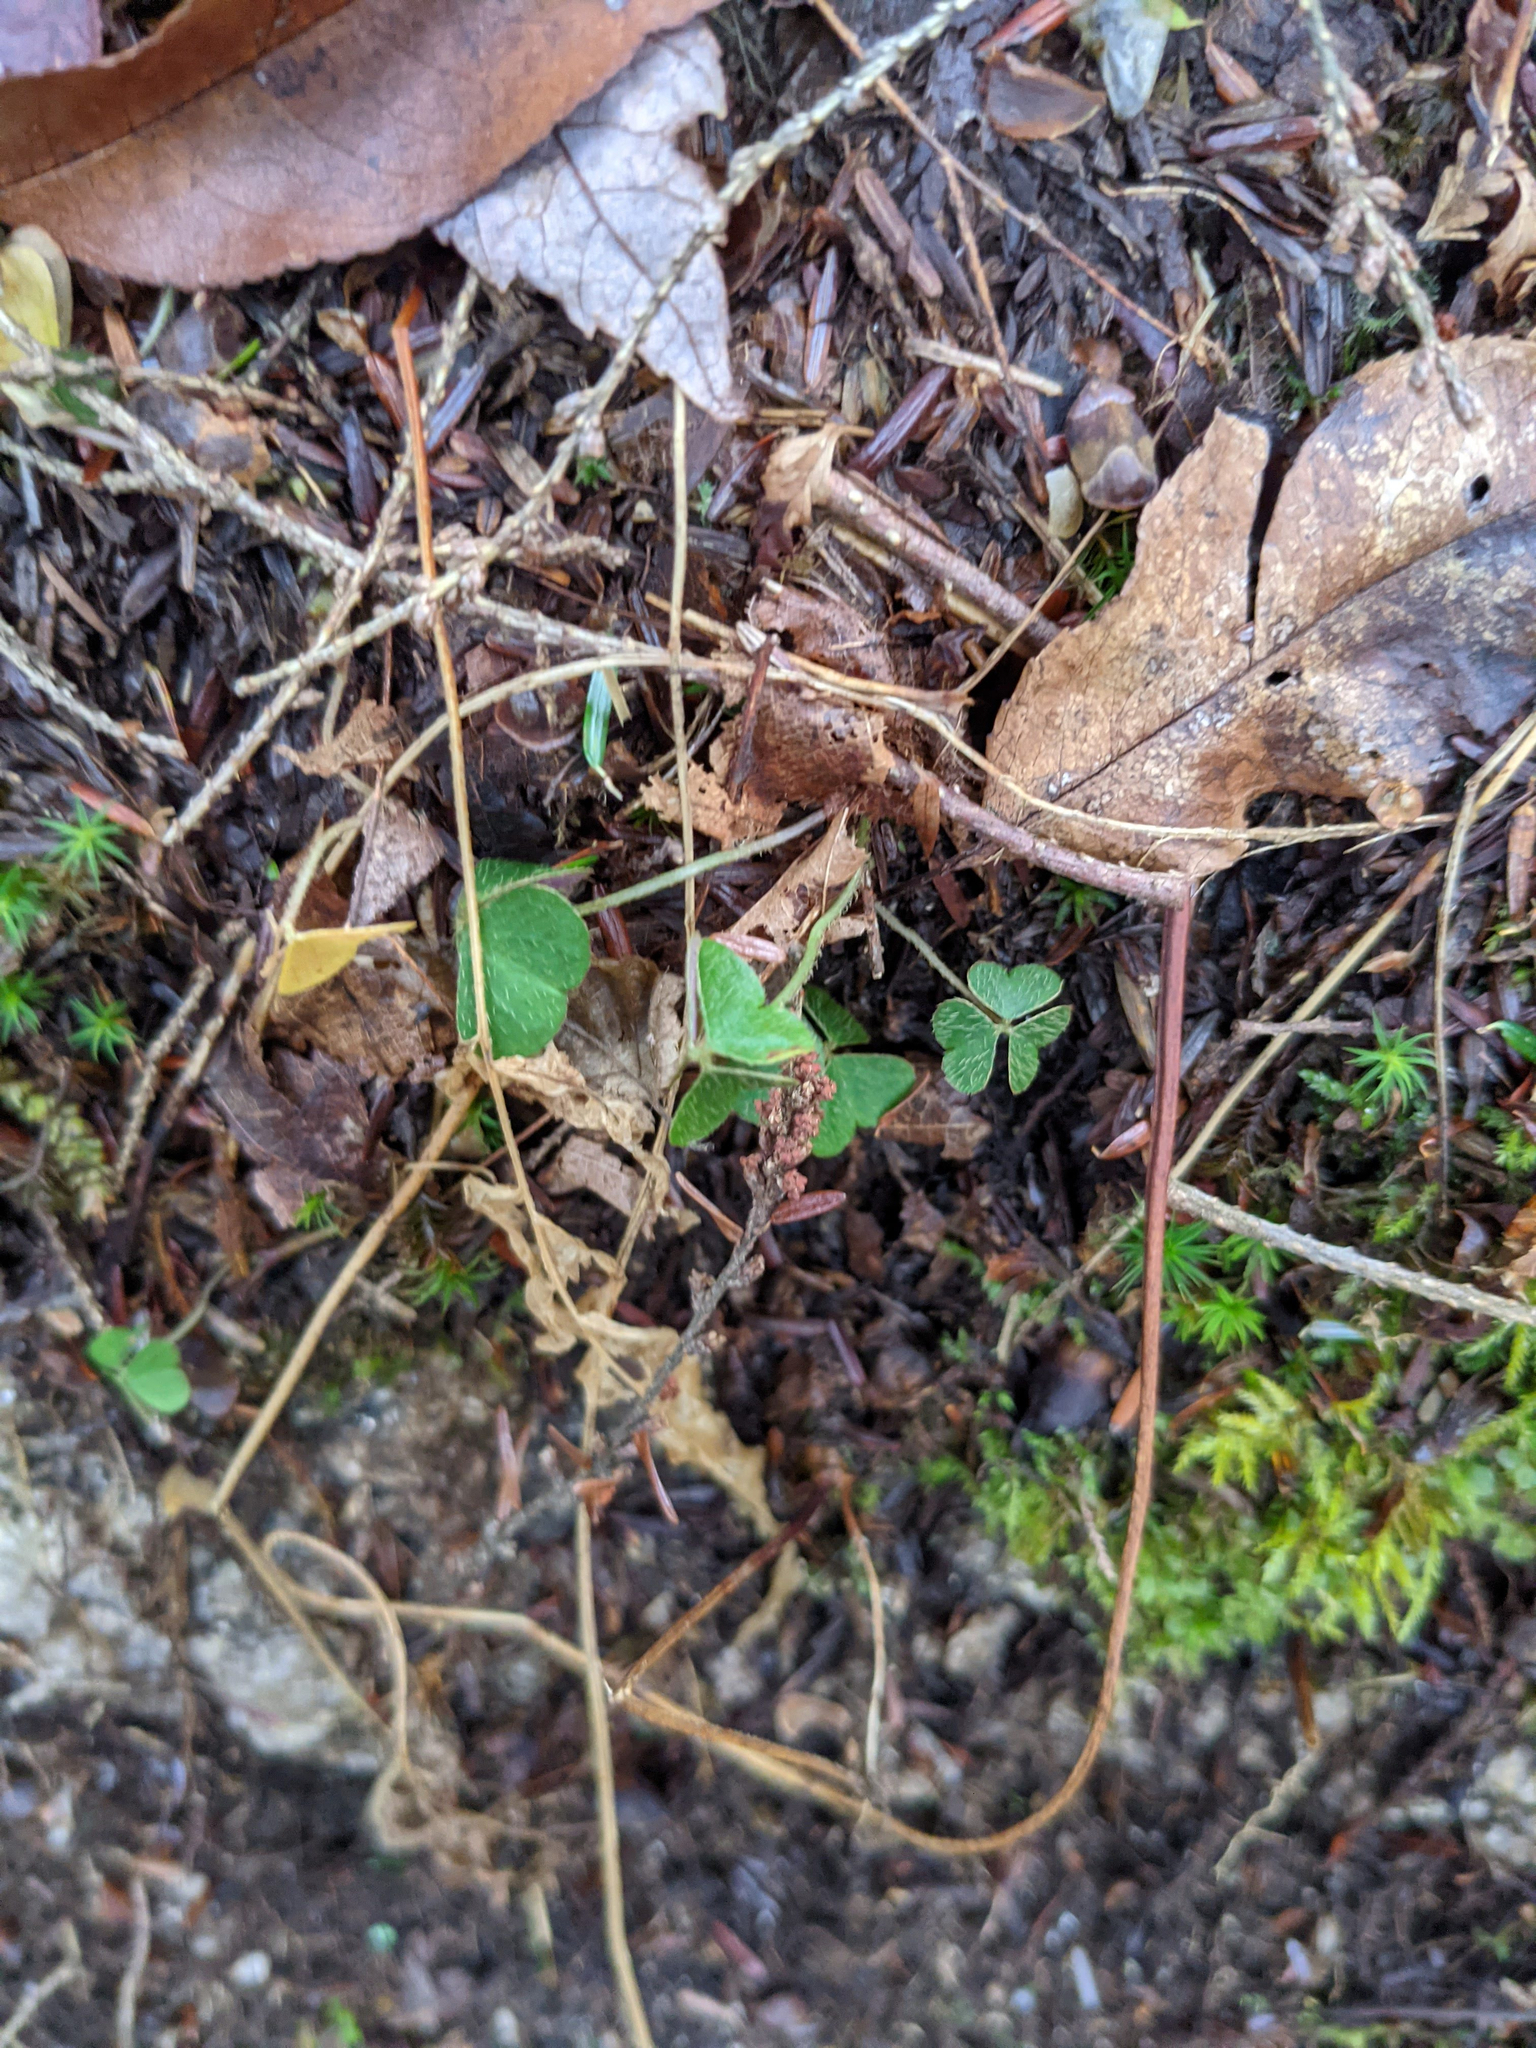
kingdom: Plantae
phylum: Tracheophyta
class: Magnoliopsida
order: Oxalidales
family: Oxalidaceae
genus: Oxalis
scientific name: Oxalis montana
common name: American wood-sorrel
